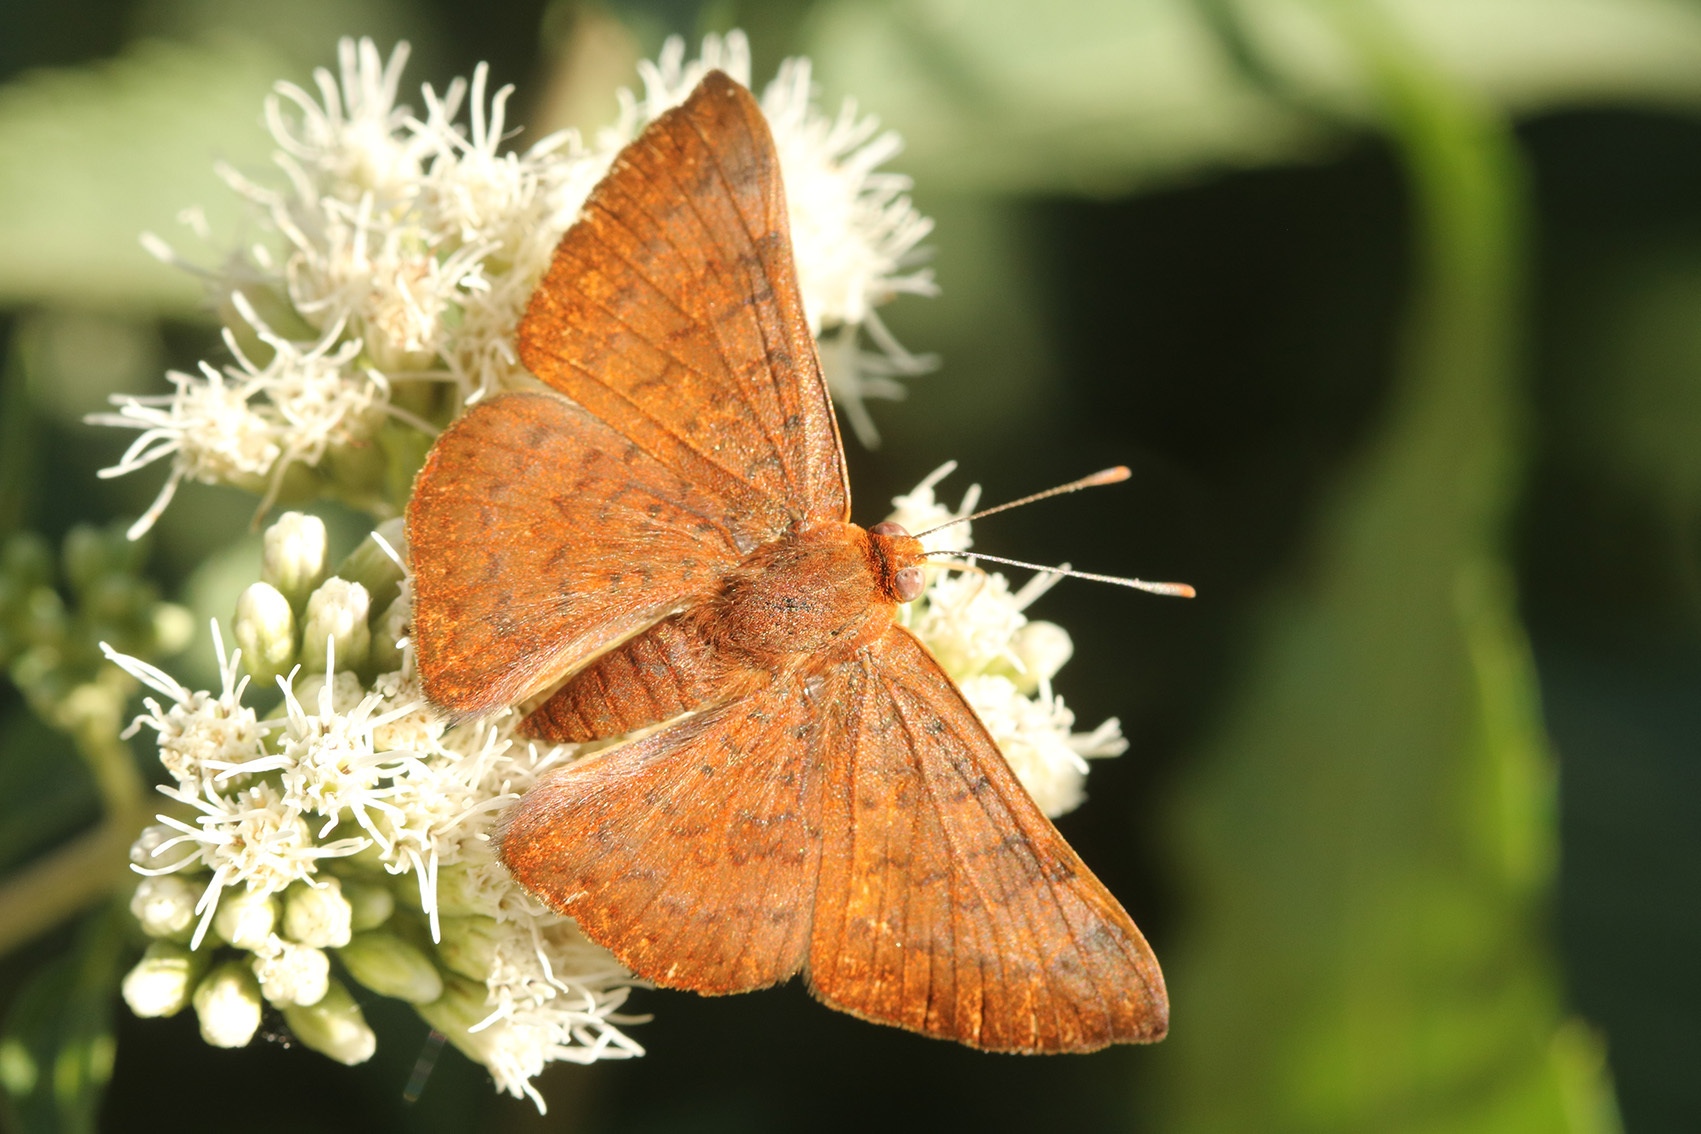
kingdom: Animalia
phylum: Arthropoda
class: Insecta
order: Lepidoptera
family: Lycaenidae
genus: Emesis
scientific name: Emesis russula
